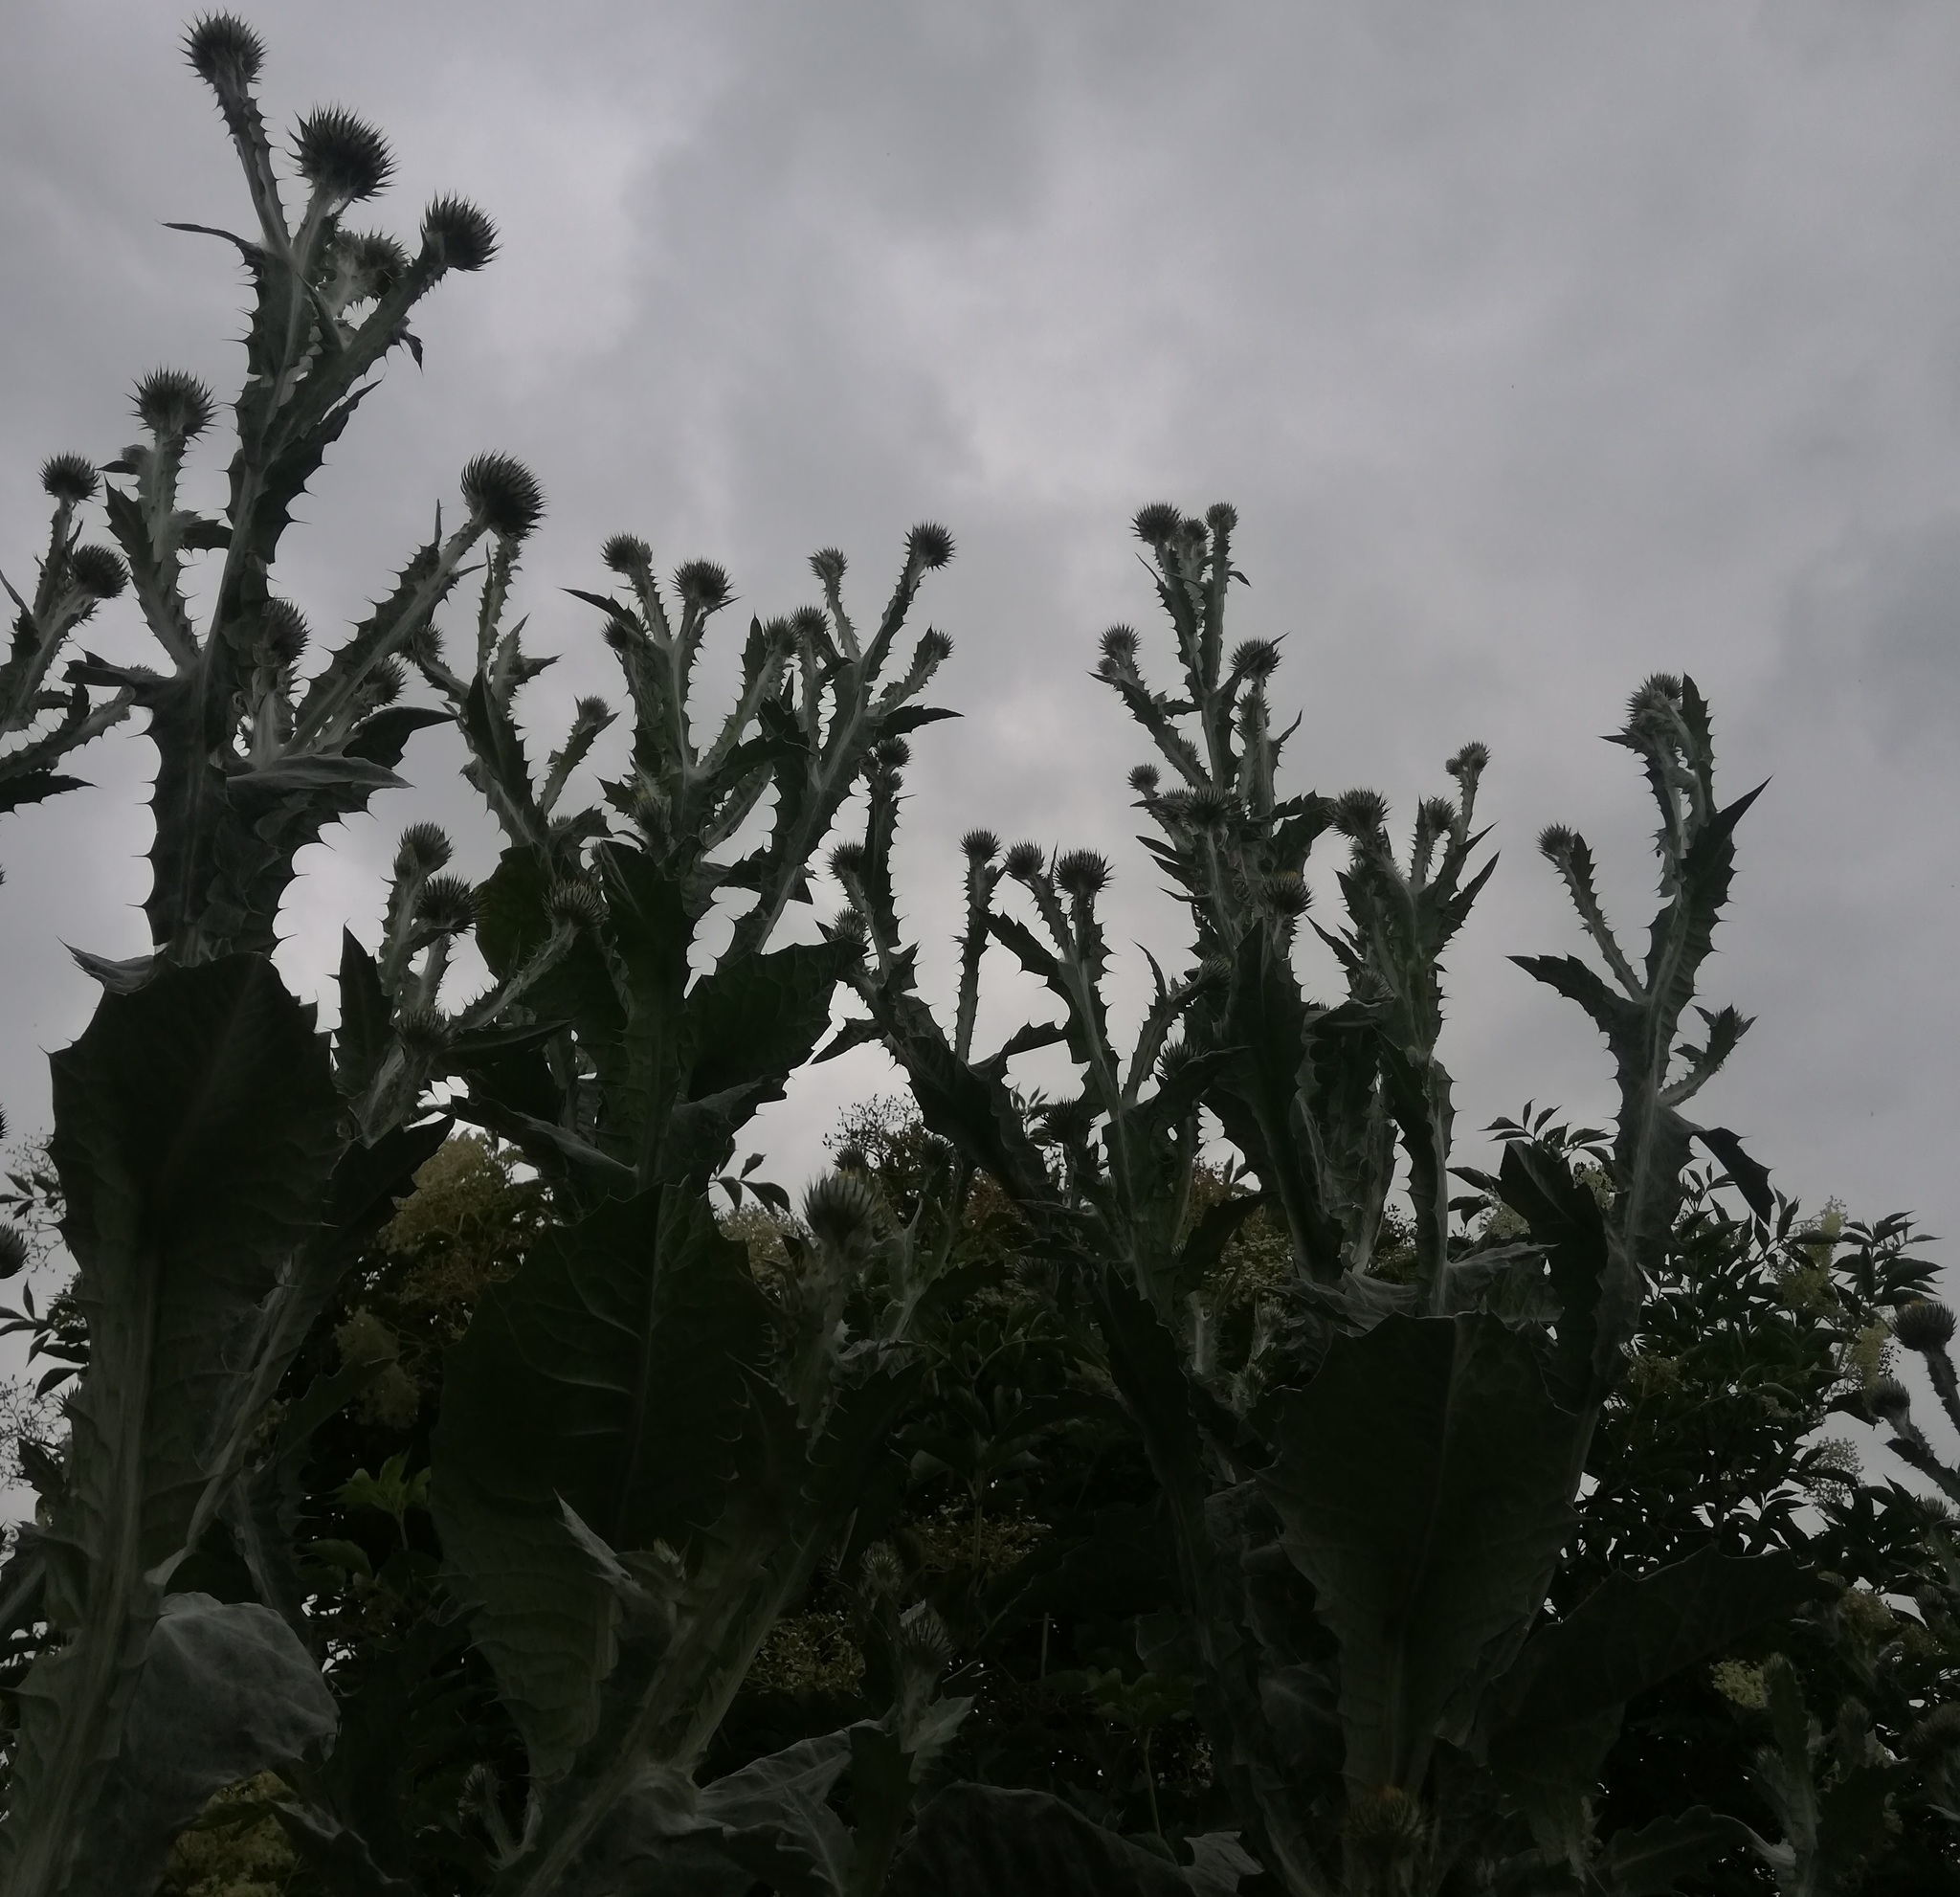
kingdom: Plantae
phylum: Tracheophyta
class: Magnoliopsida
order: Asterales
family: Asteraceae
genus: Onopordum
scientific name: Onopordum acanthium
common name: Scotch thistle
